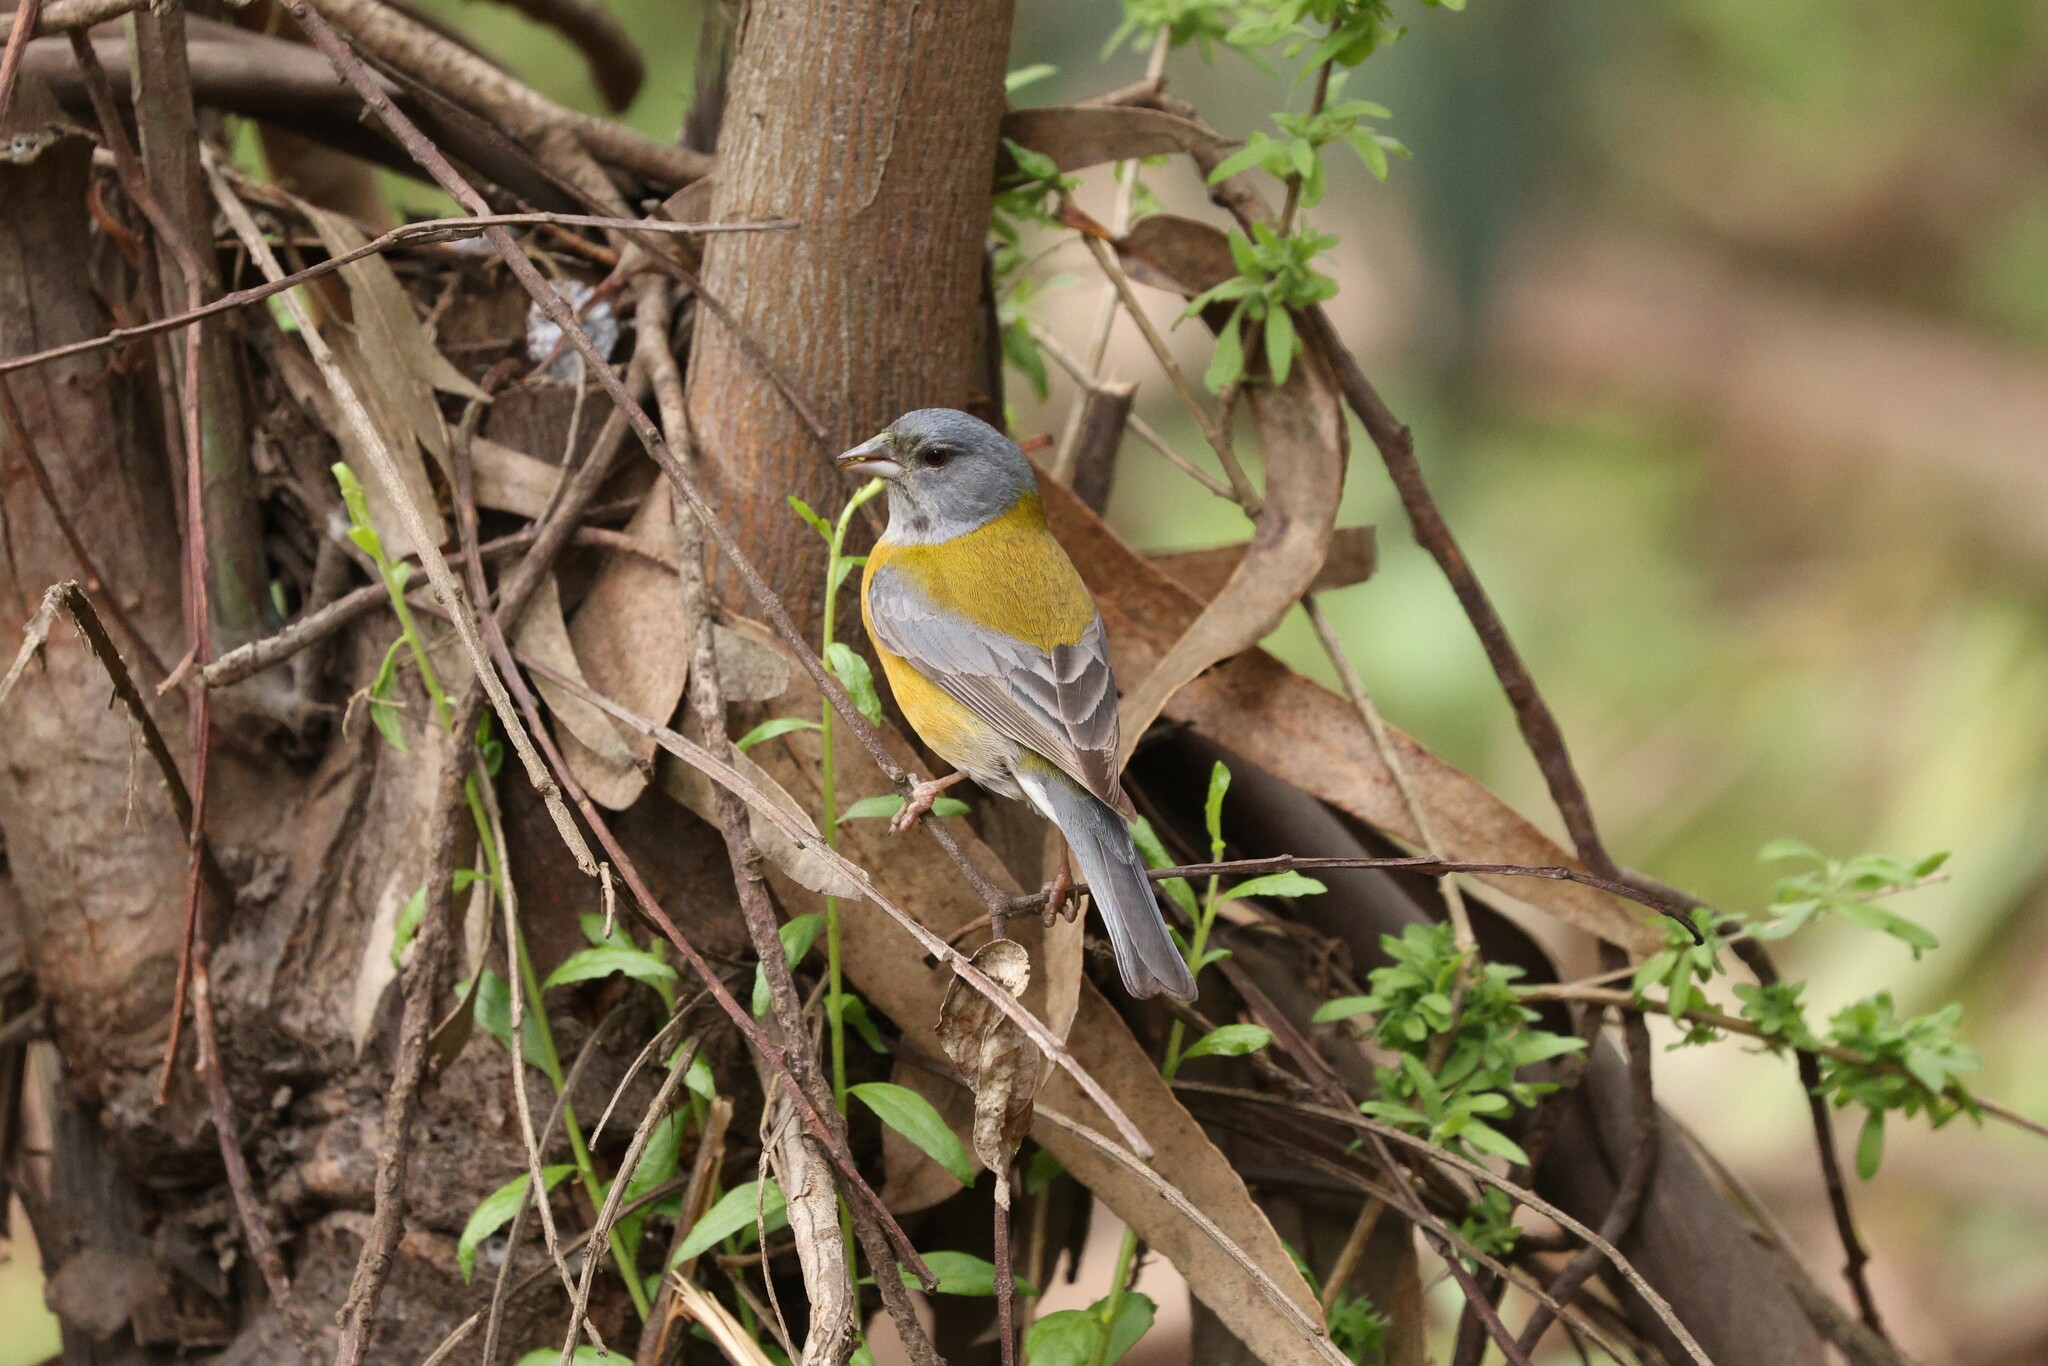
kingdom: Animalia
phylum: Chordata
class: Aves
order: Passeriformes
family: Thraupidae
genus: Phrygilus
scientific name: Phrygilus gayi
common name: Grey-hooded sierra finch
